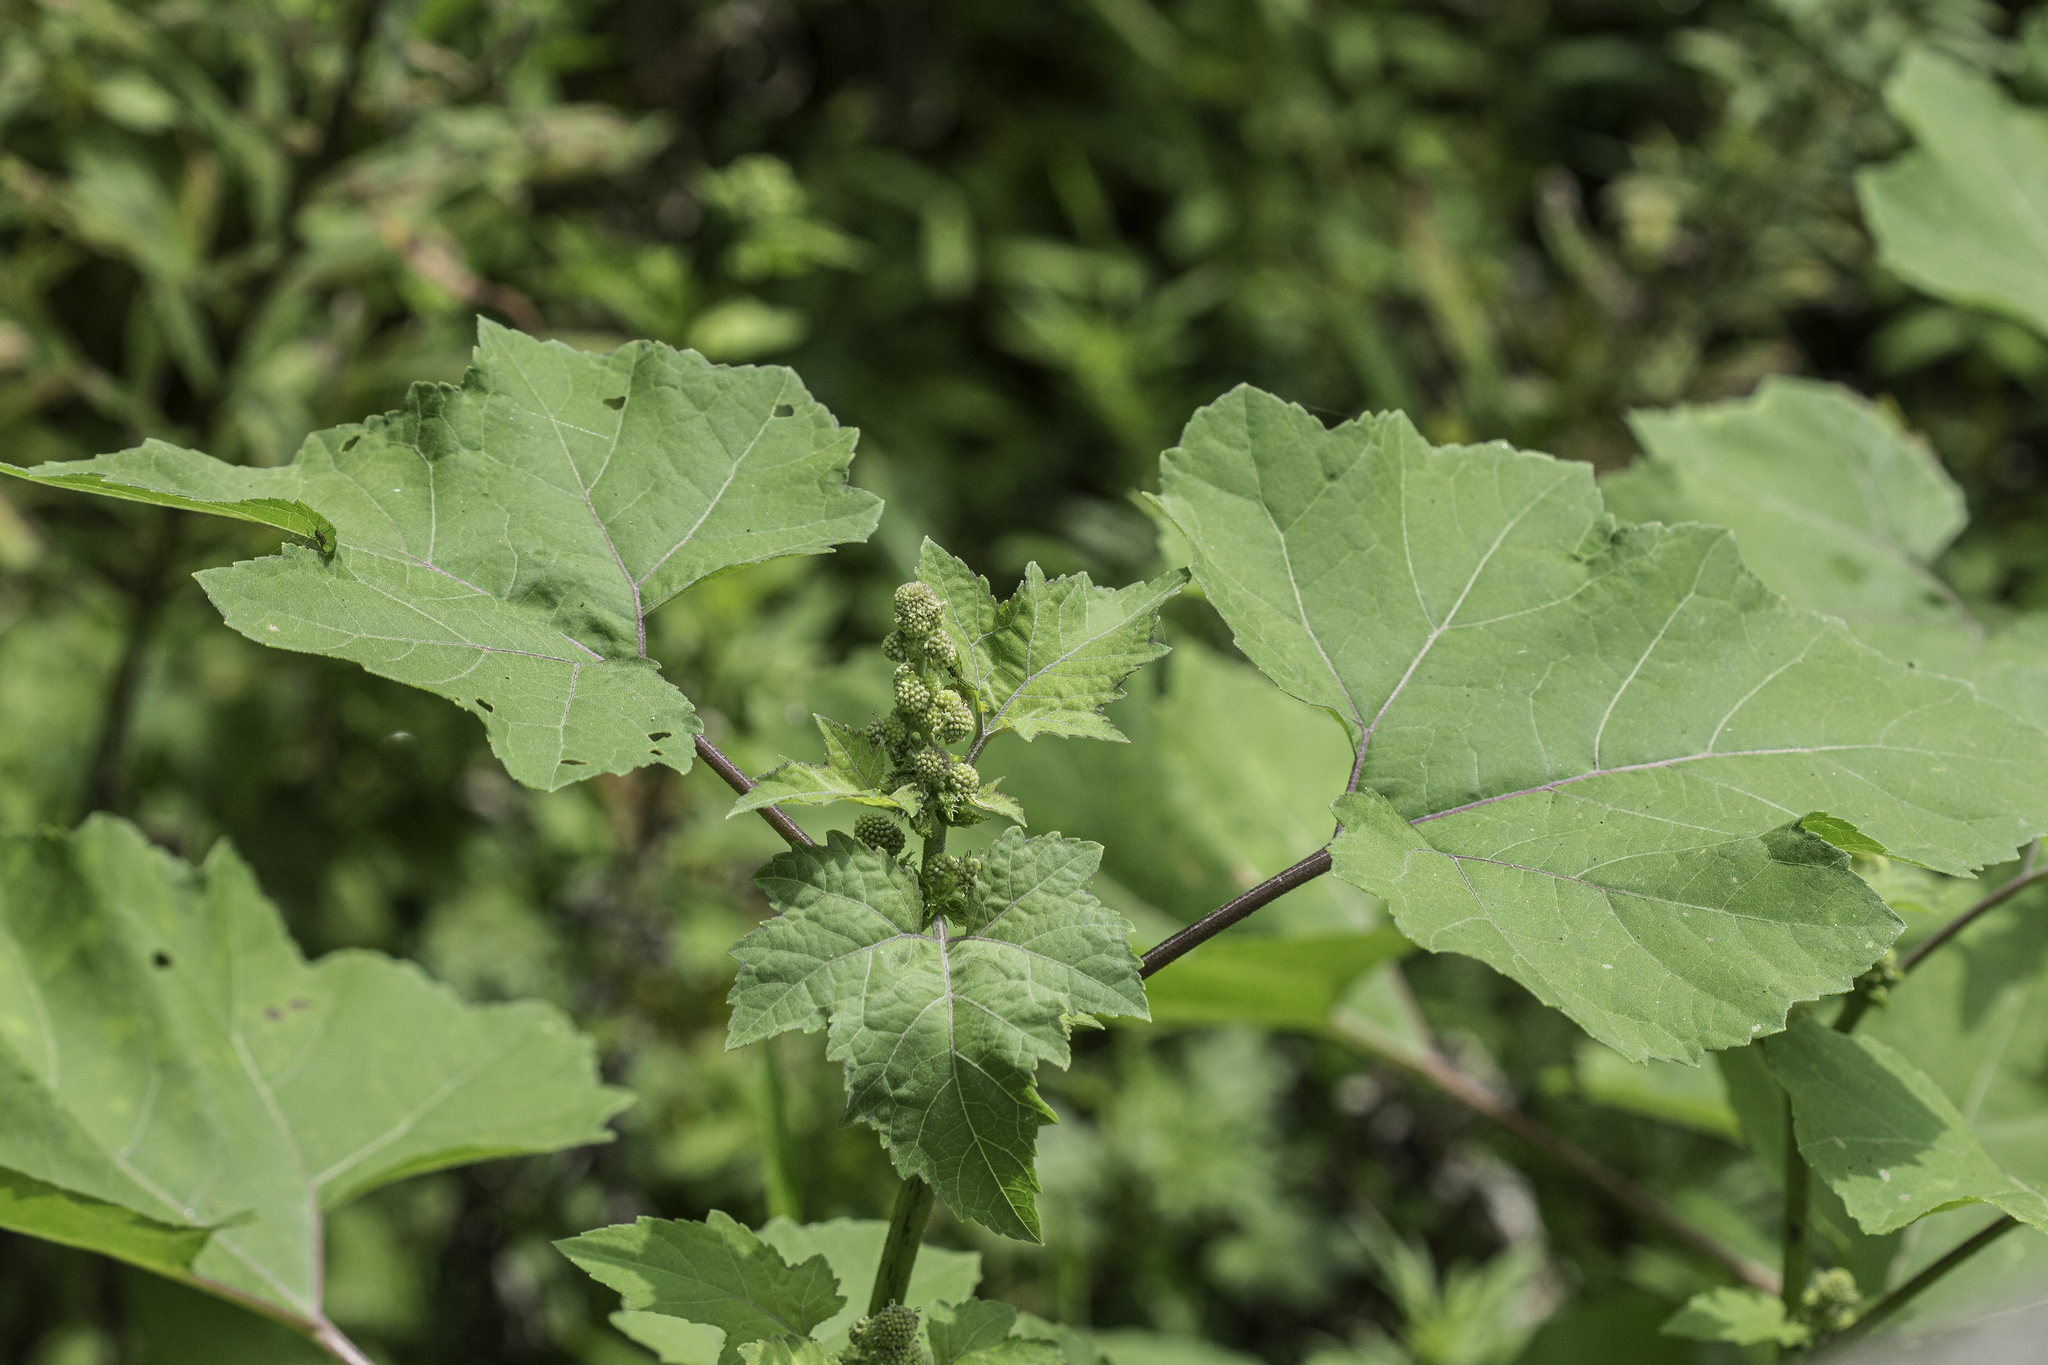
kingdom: Plantae
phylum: Tracheophyta
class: Magnoliopsida
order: Asterales
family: Asteraceae
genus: Xanthium
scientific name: Xanthium strumarium
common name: Rough cocklebur
